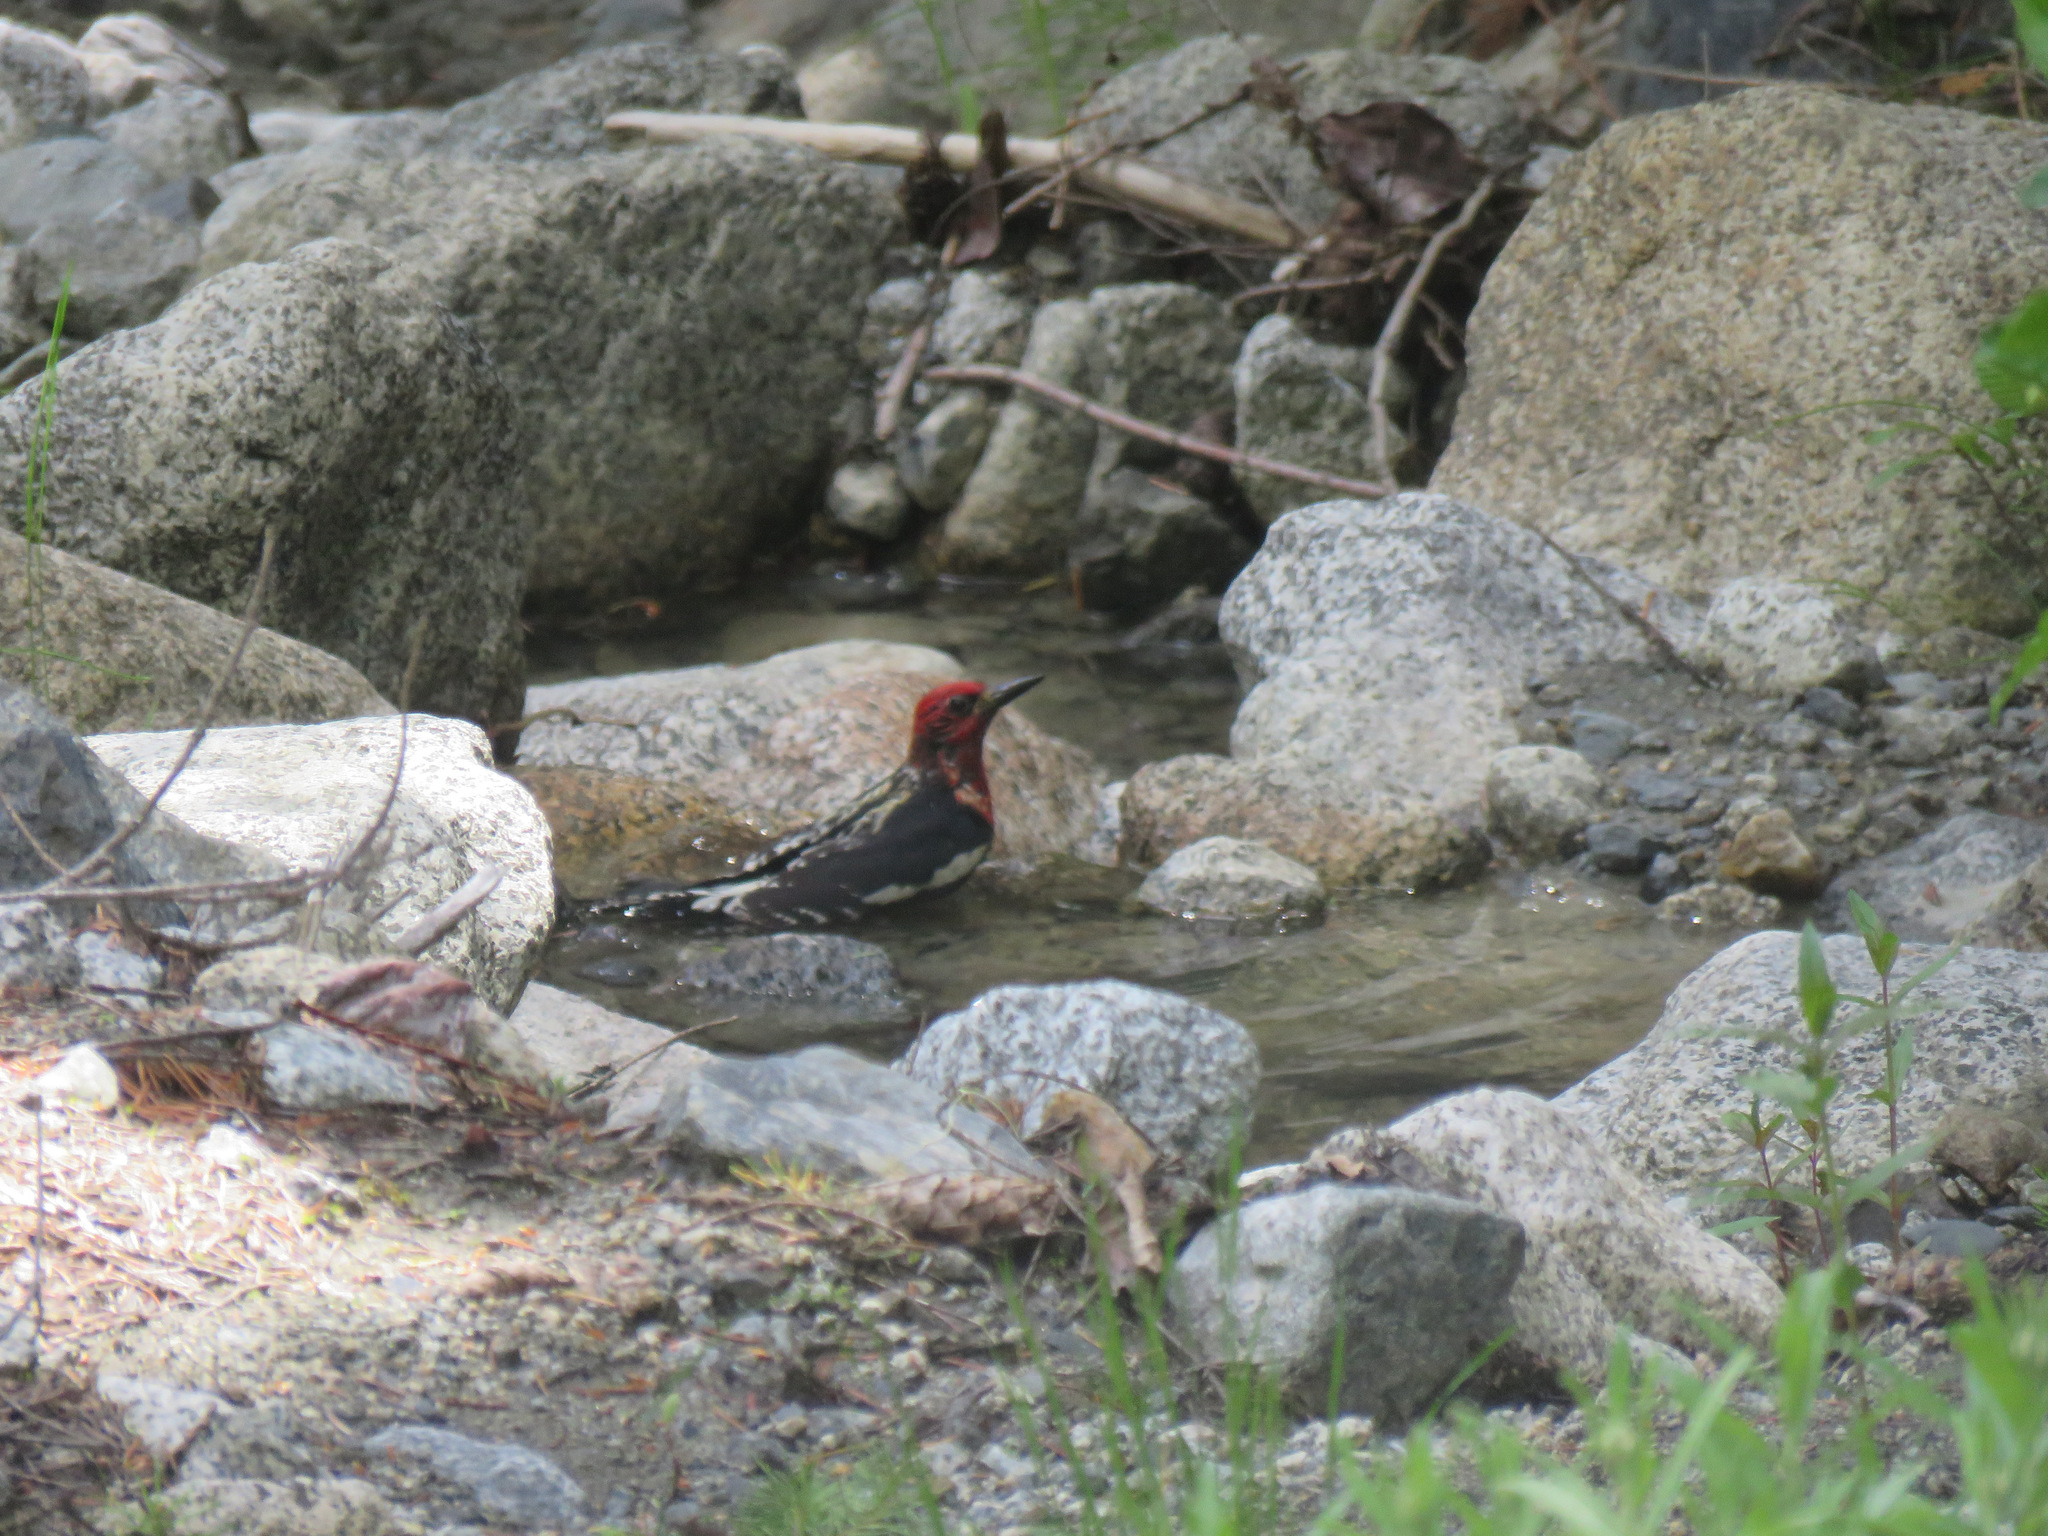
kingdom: Animalia
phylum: Chordata
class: Aves
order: Piciformes
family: Picidae
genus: Sphyrapicus
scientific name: Sphyrapicus ruber
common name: Red-breasted sapsucker
